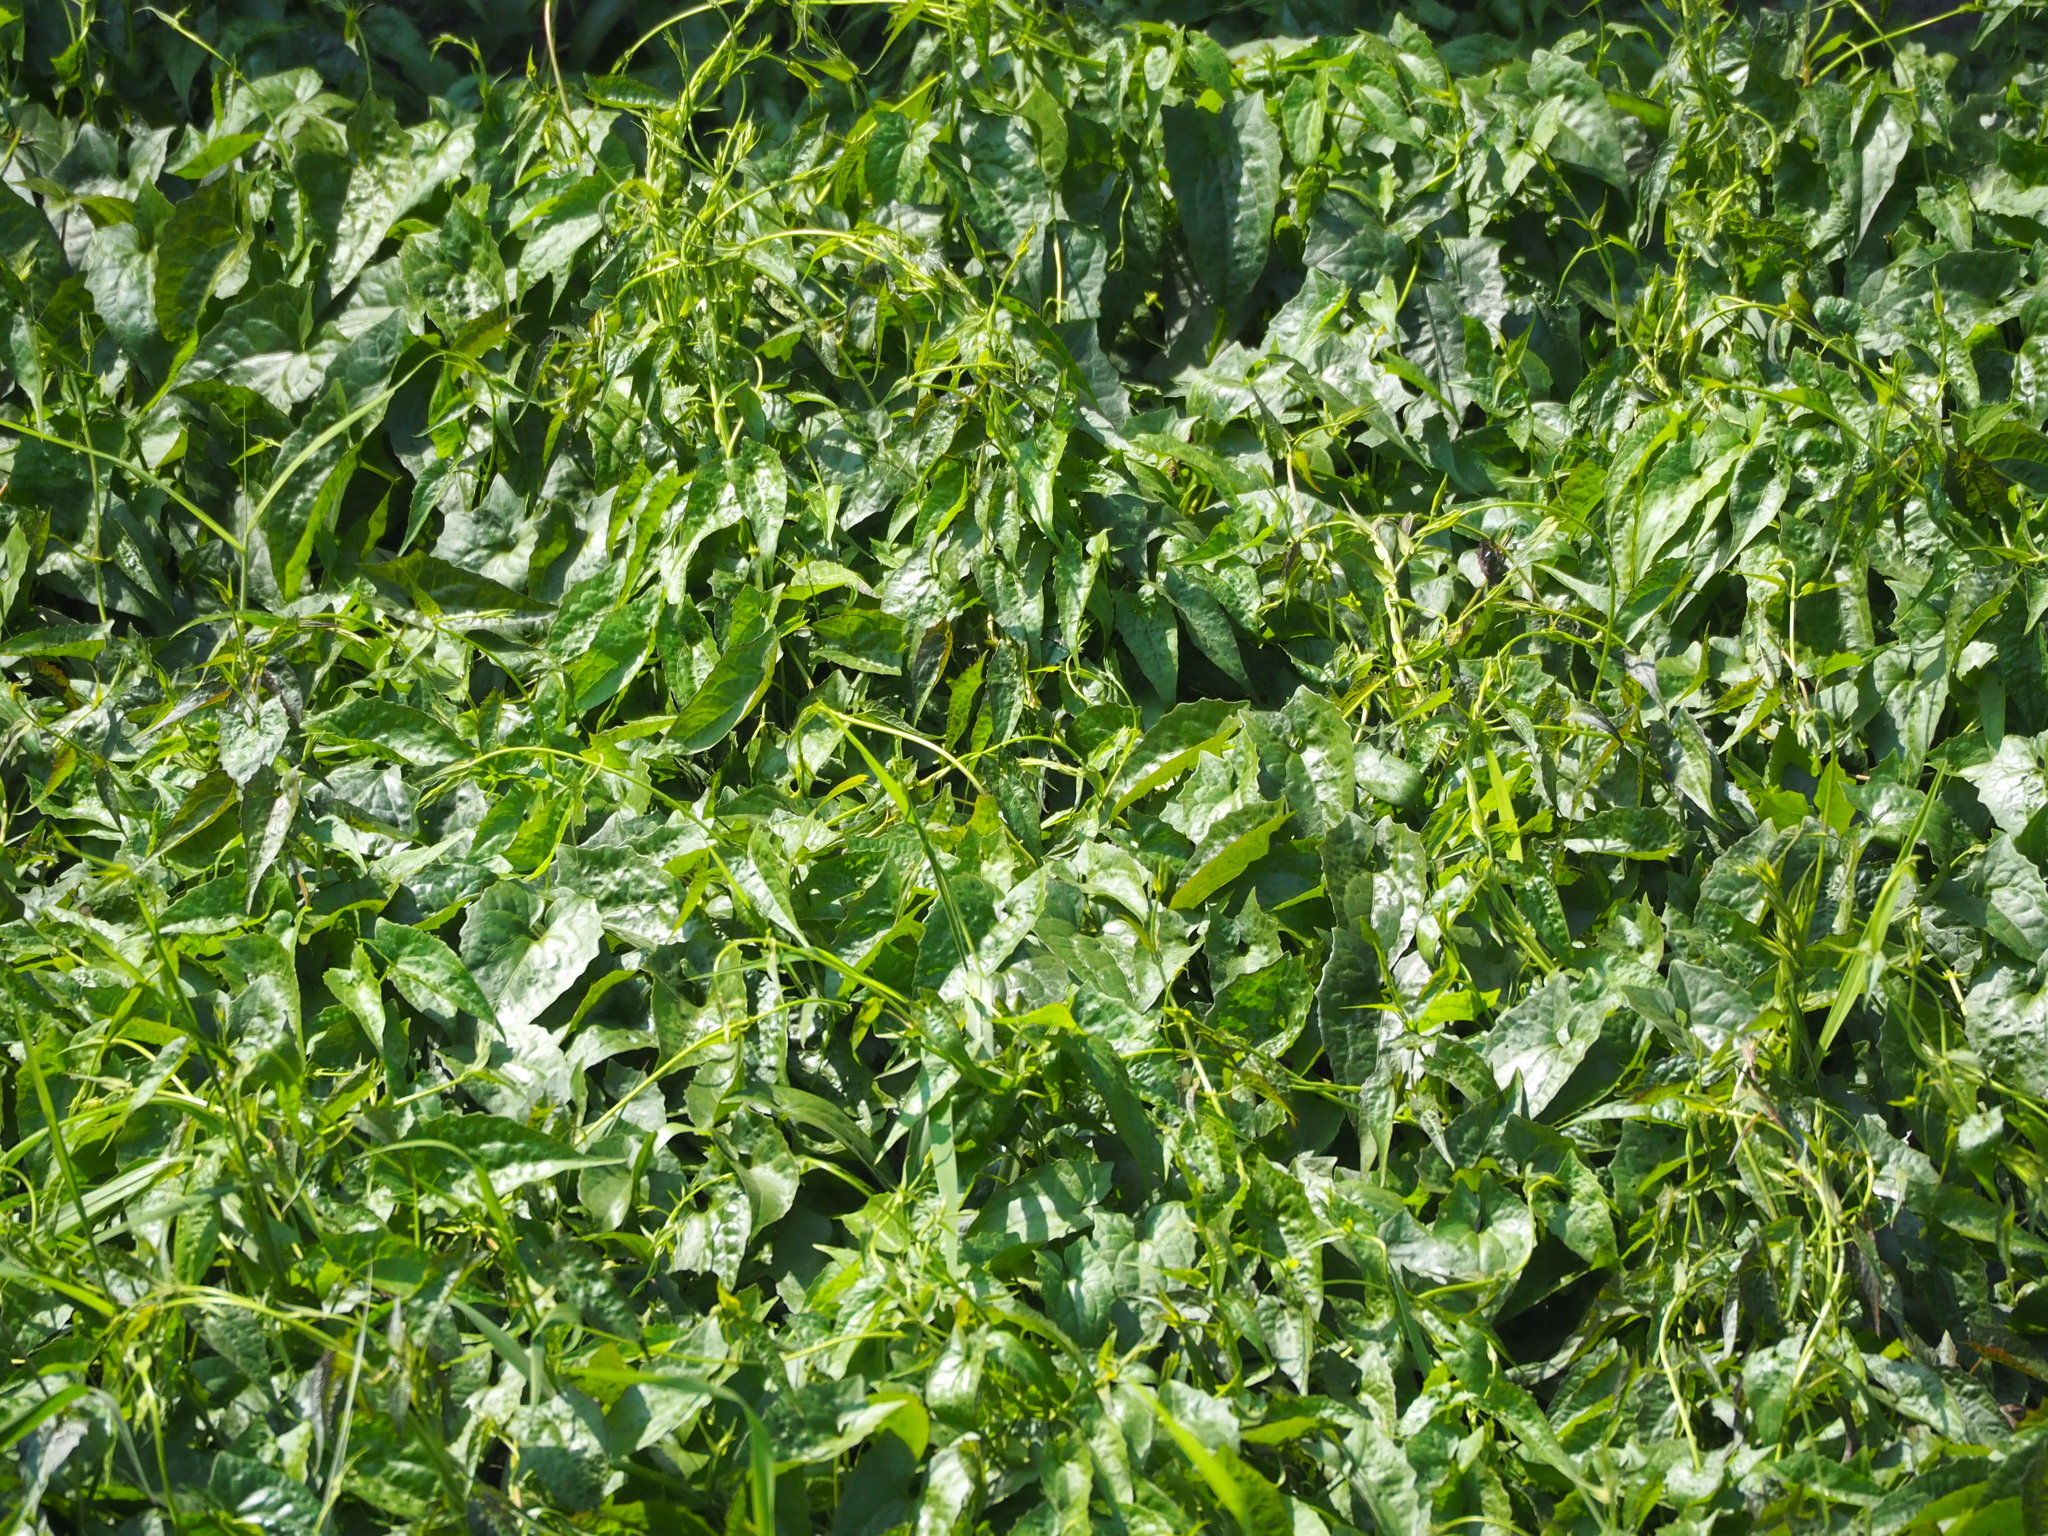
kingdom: Plantae
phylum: Tracheophyta
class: Magnoliopsida
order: Asterales
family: Asteraceae
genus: Mikania
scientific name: Mikania micrantha
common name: Mile-a-minute
